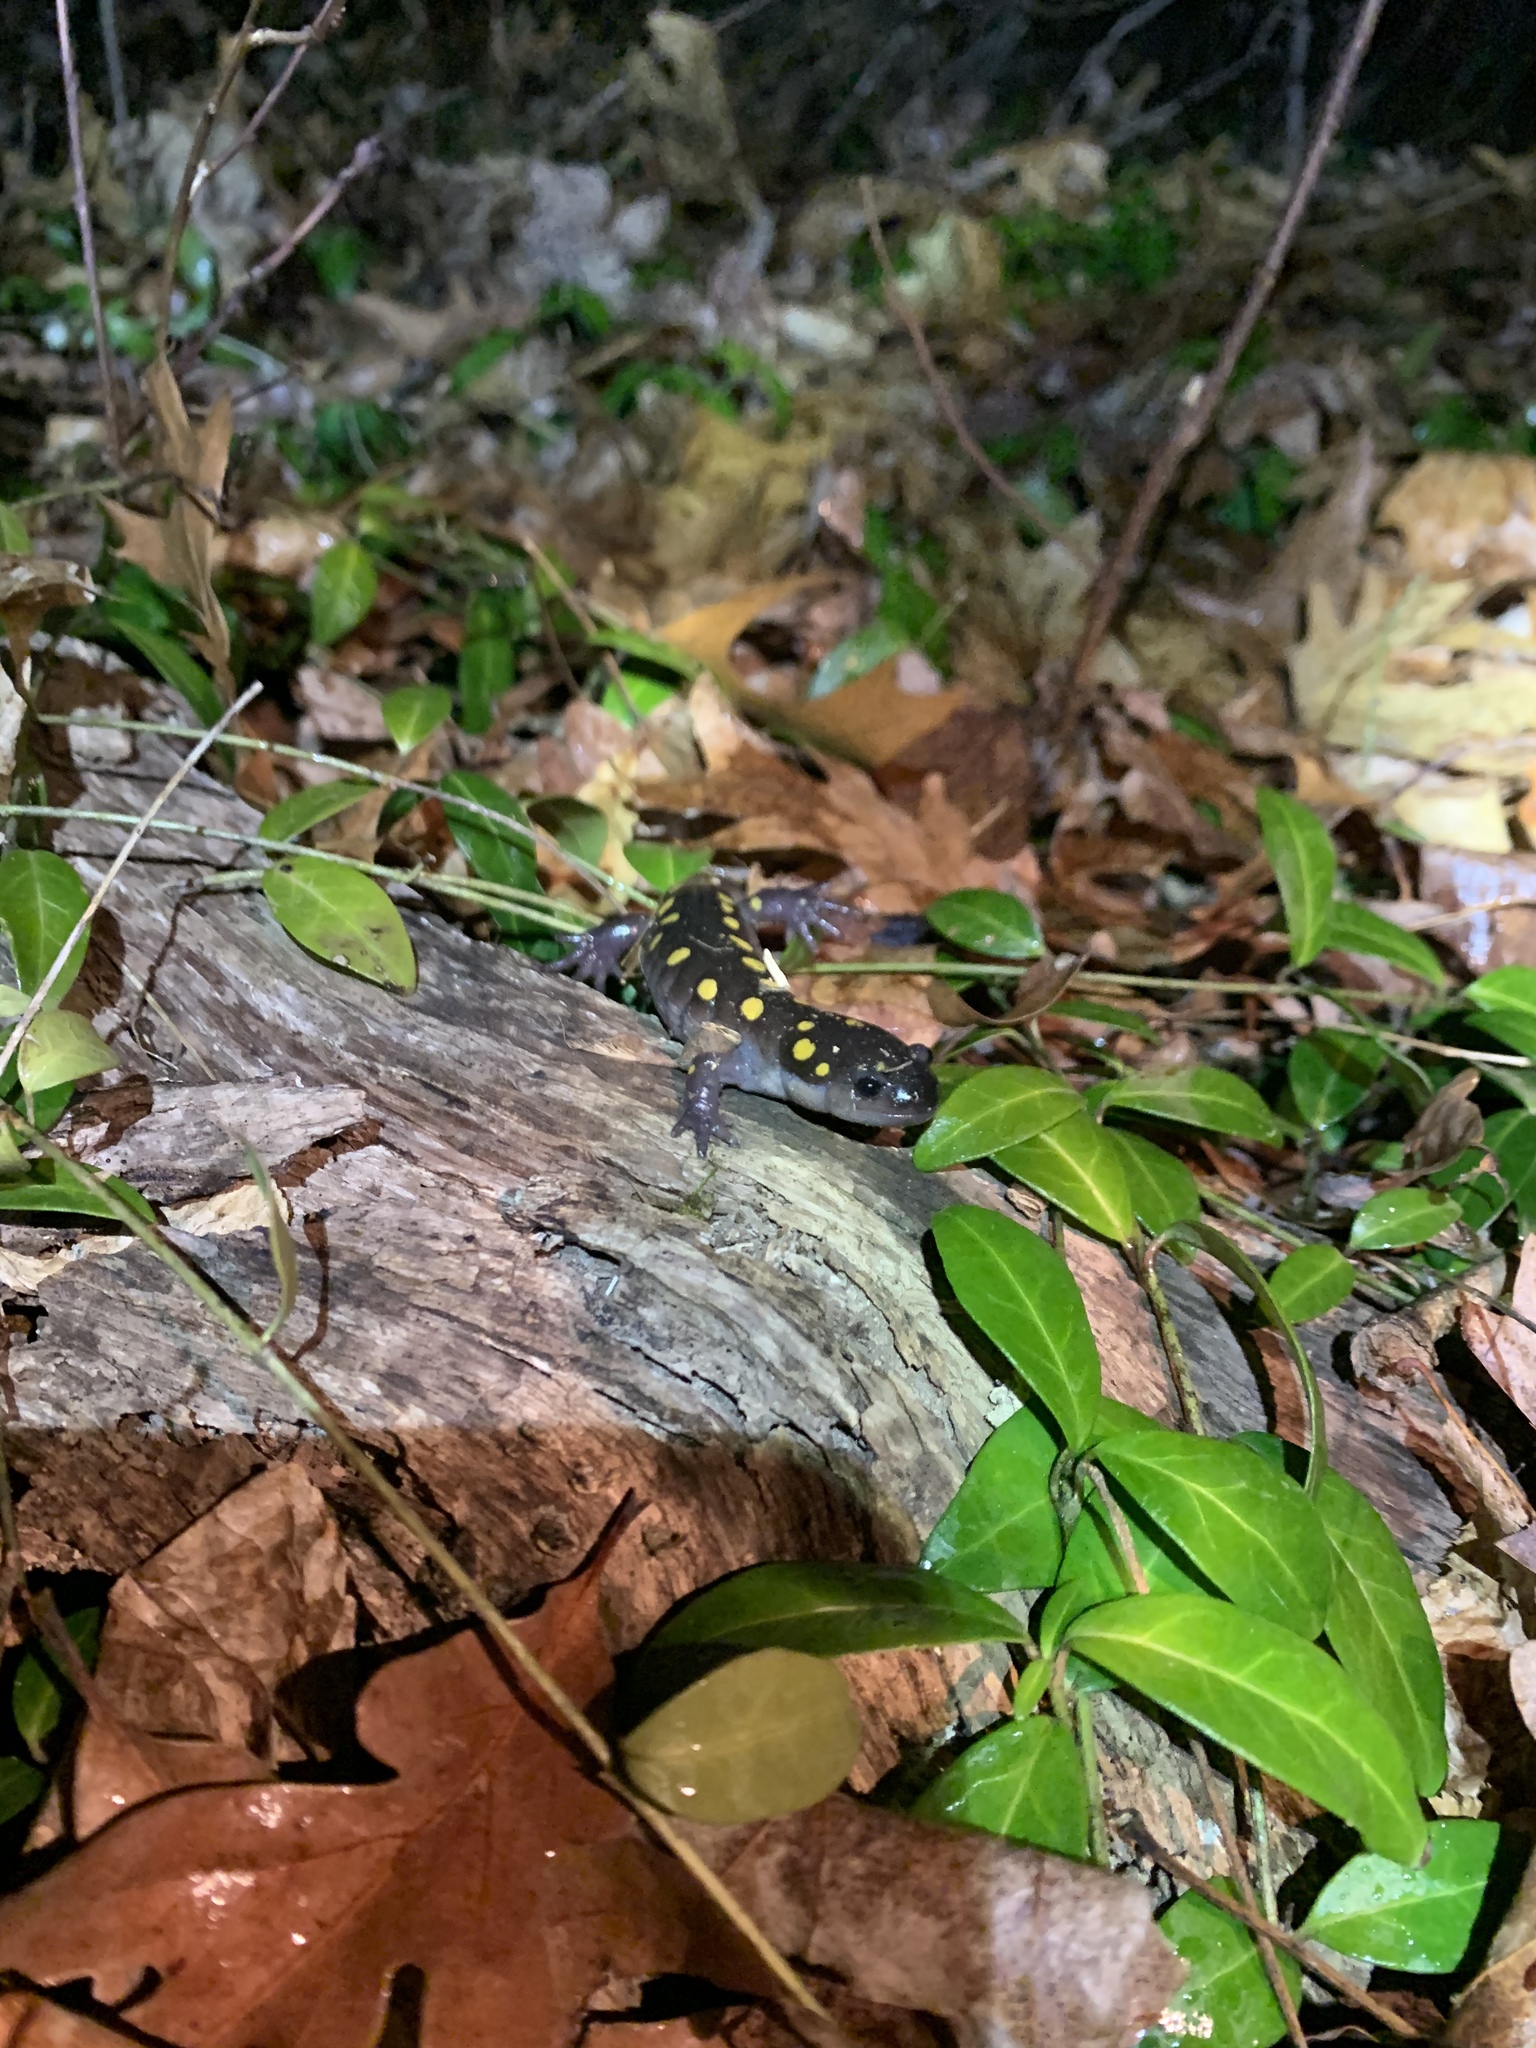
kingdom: Animalia
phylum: Chordata
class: Amphibia
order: Caudata
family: Ambystomatidae
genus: Ambystoma
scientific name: Ambystoma maculatum
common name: Spotted salamander
